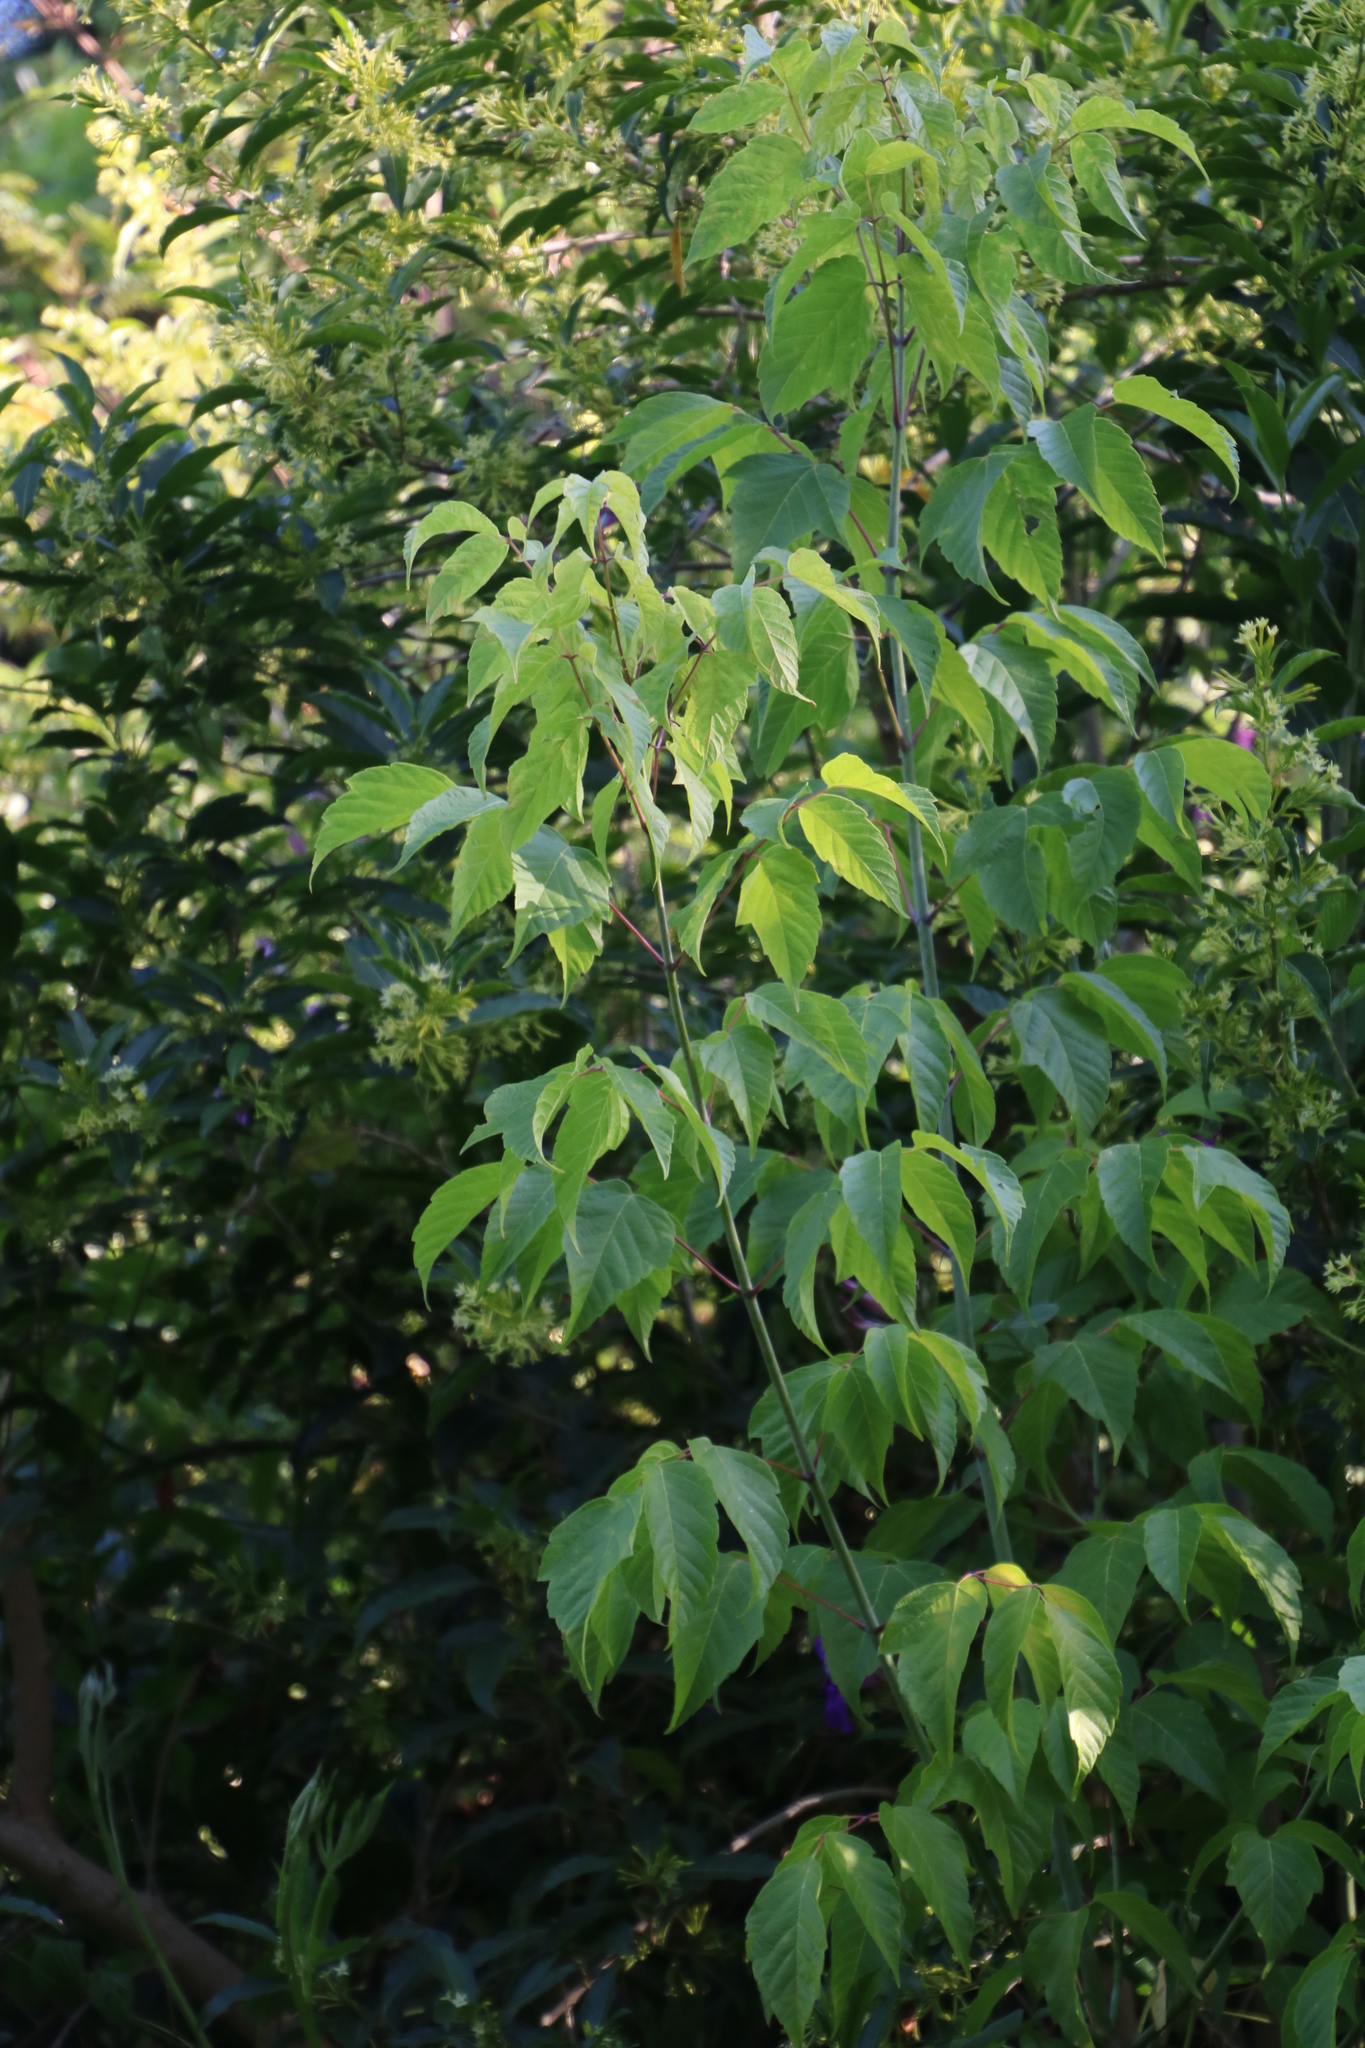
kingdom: Plantae
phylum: Tracheophyta
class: Magnoliopsida
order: Sapindales
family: Sapindaceae
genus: Acer
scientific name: Acer negundo
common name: Ashleaf maple
